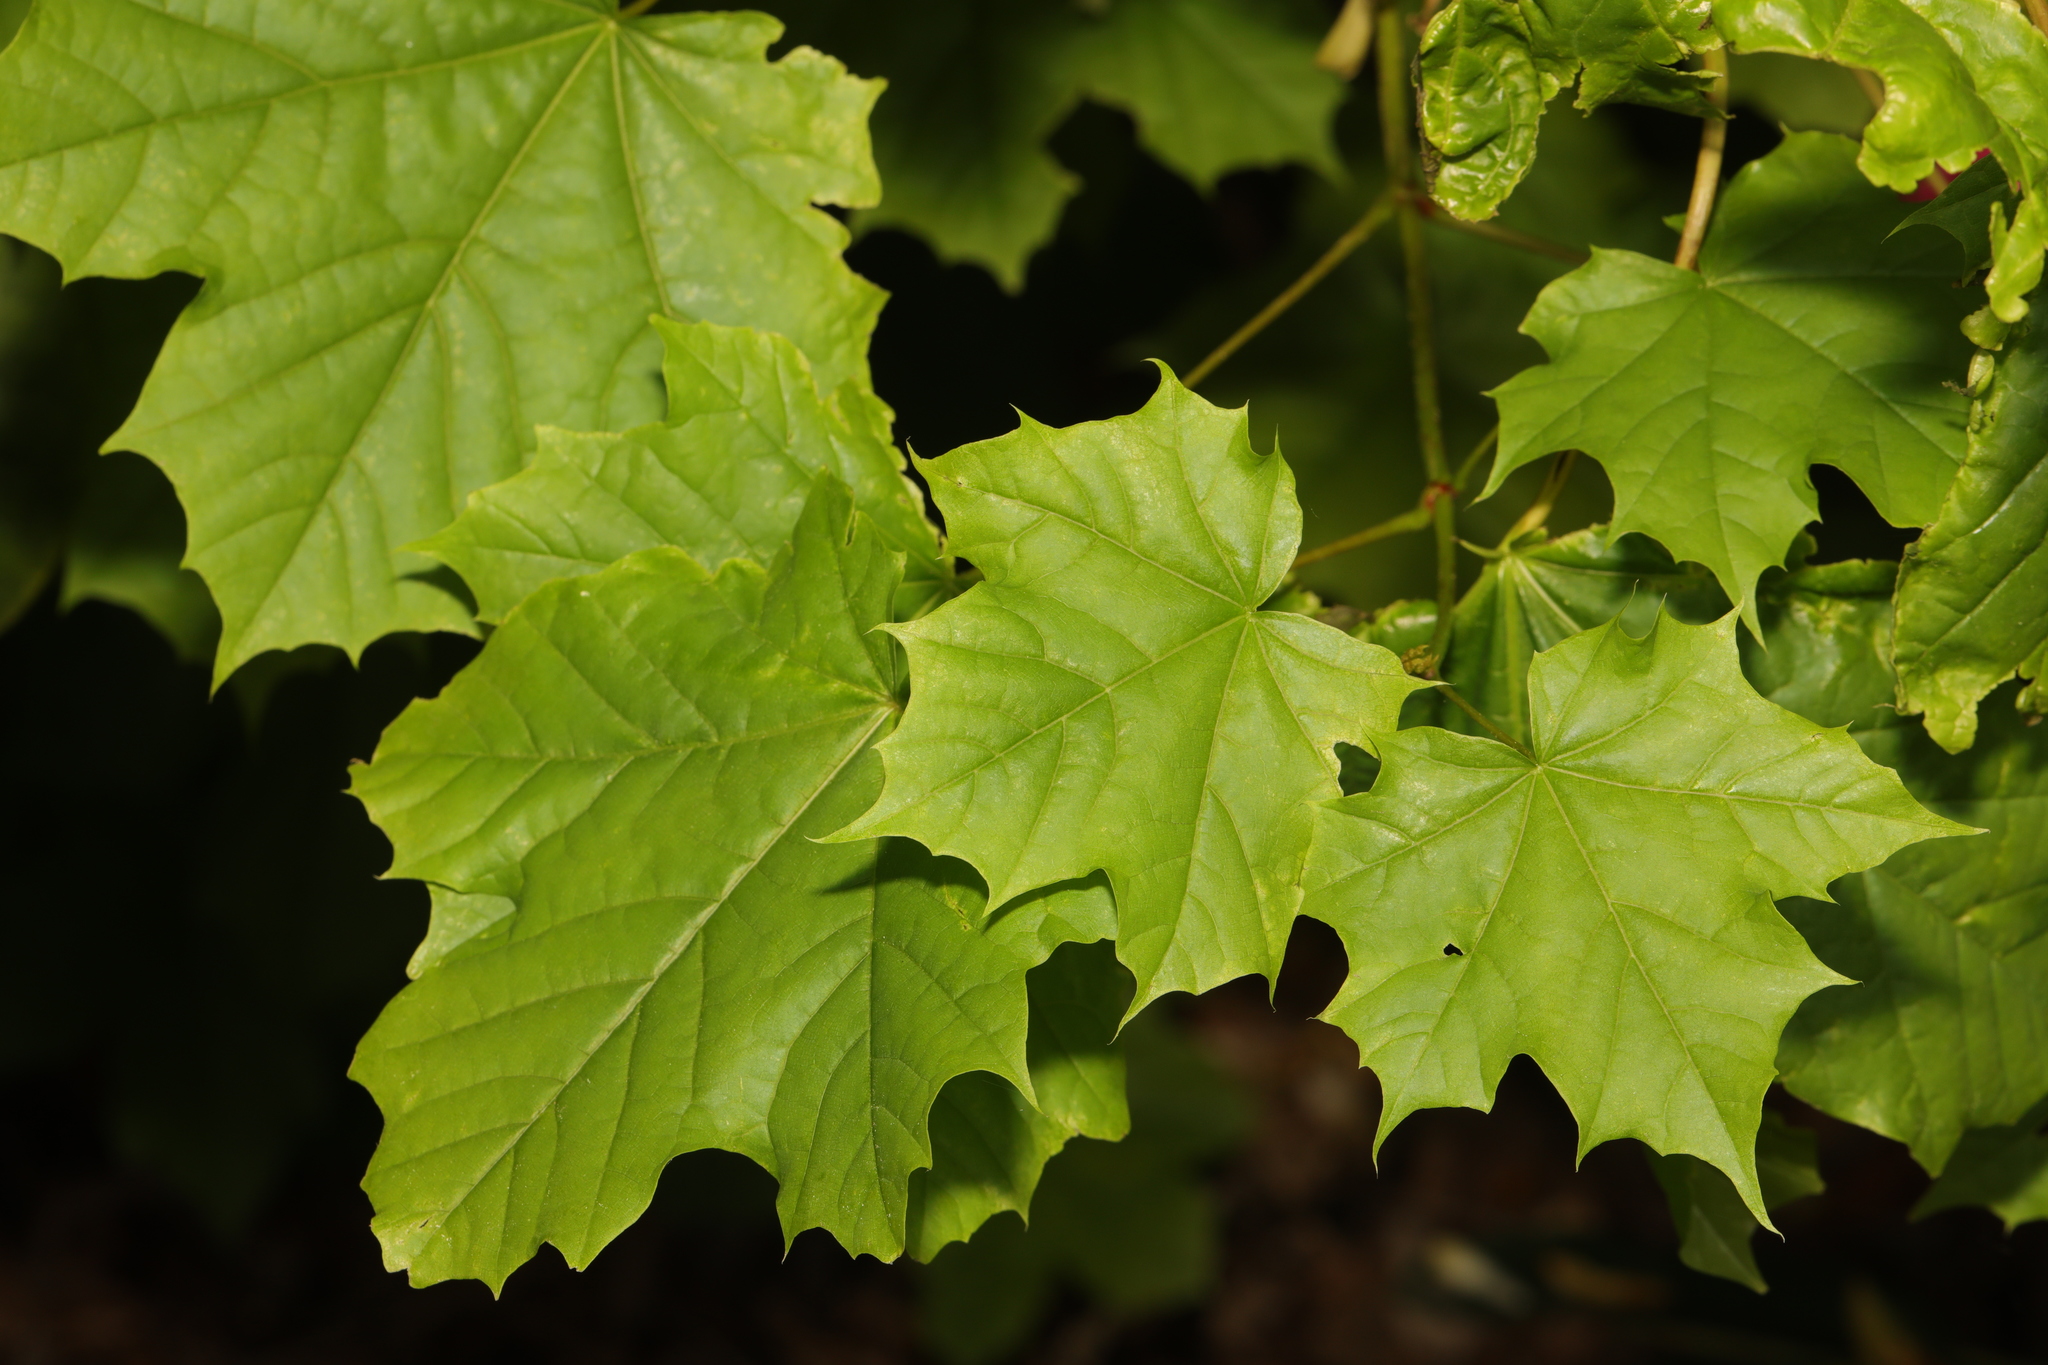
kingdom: Plantae
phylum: Tracheophyta
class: Magnoliopsida
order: Sapindales
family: Sapindaceae
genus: Acer
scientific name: Acer platanoides
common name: Norway maple
